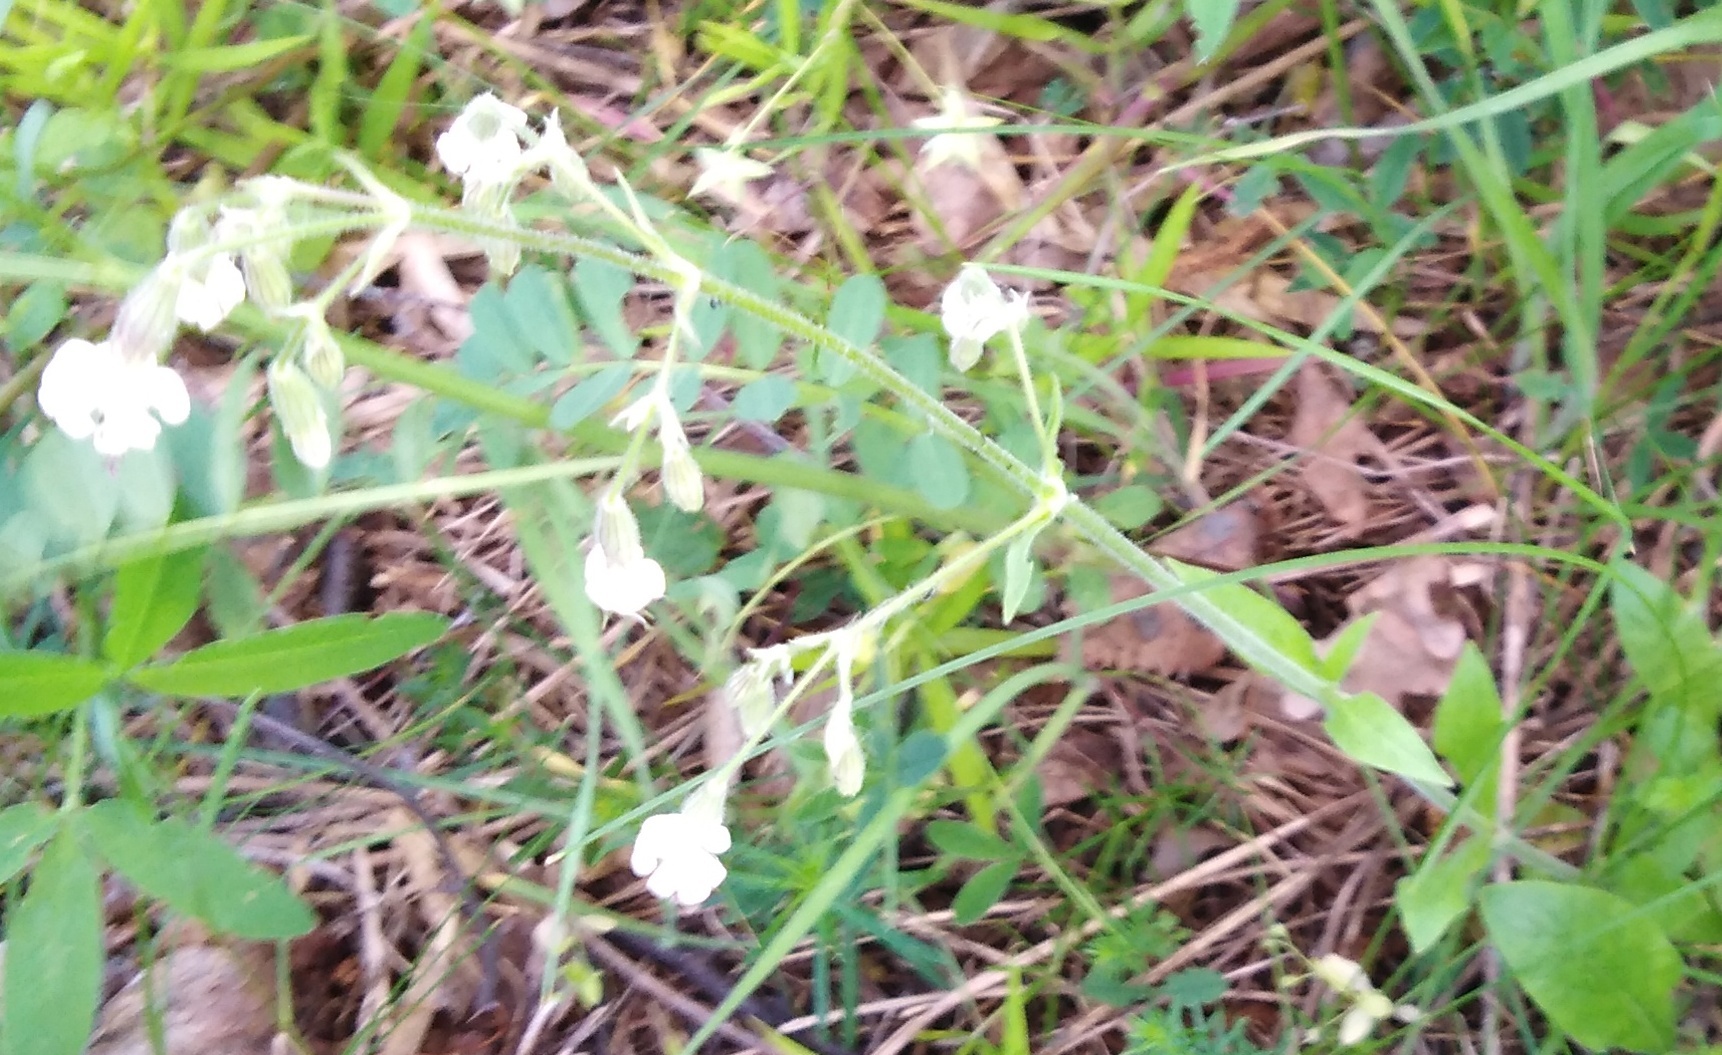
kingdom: Plantae
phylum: Tracheophyta
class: Magnoliopsida
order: Caryophyllales
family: Caryophyllaceae
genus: Silene
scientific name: Silene nutans
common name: Nottingham catchfly
